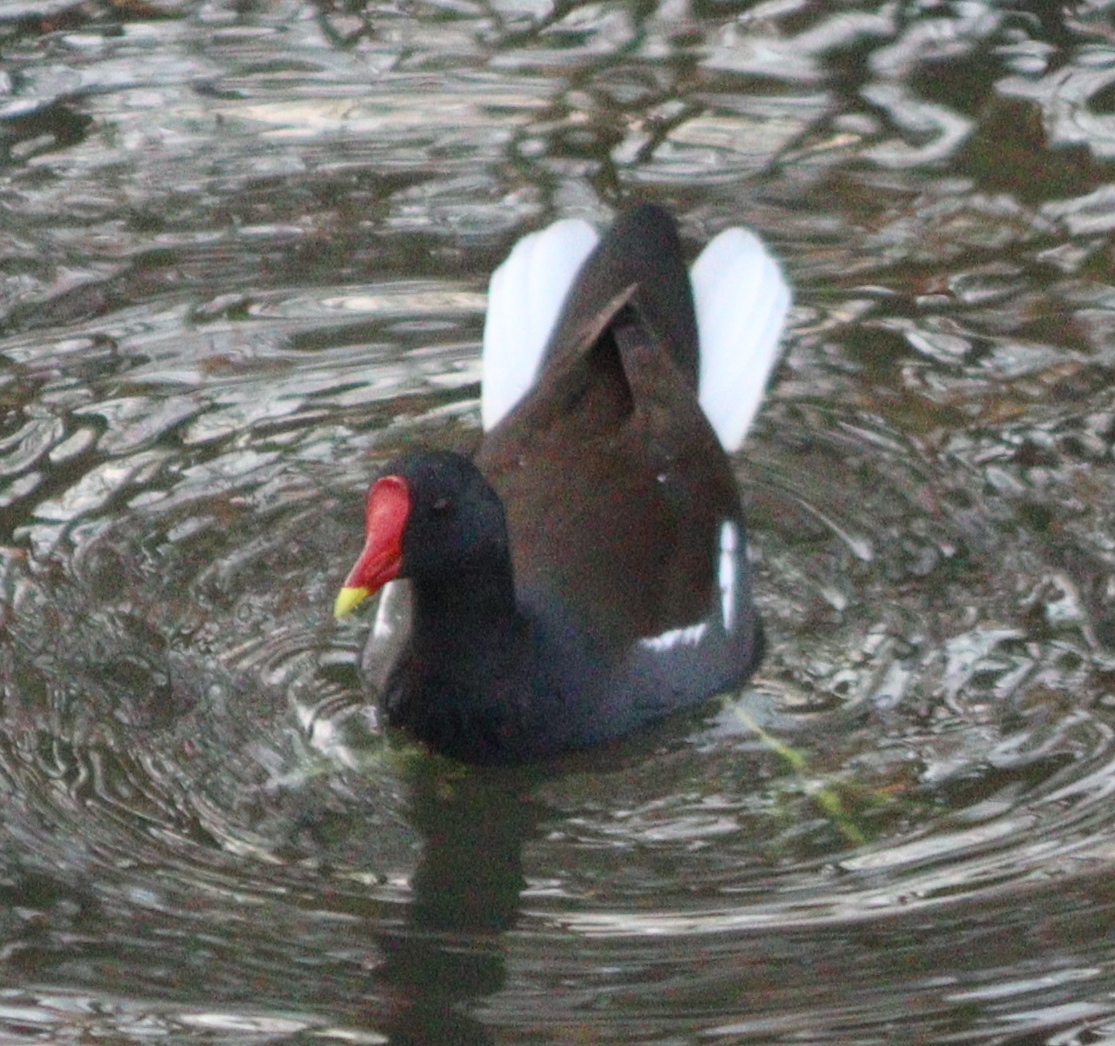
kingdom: Animalia
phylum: Chordata
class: Aves
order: Gruiformes
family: Rallidae
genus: Gallinula
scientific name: Gallinula chloropus
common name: Common moorhen
